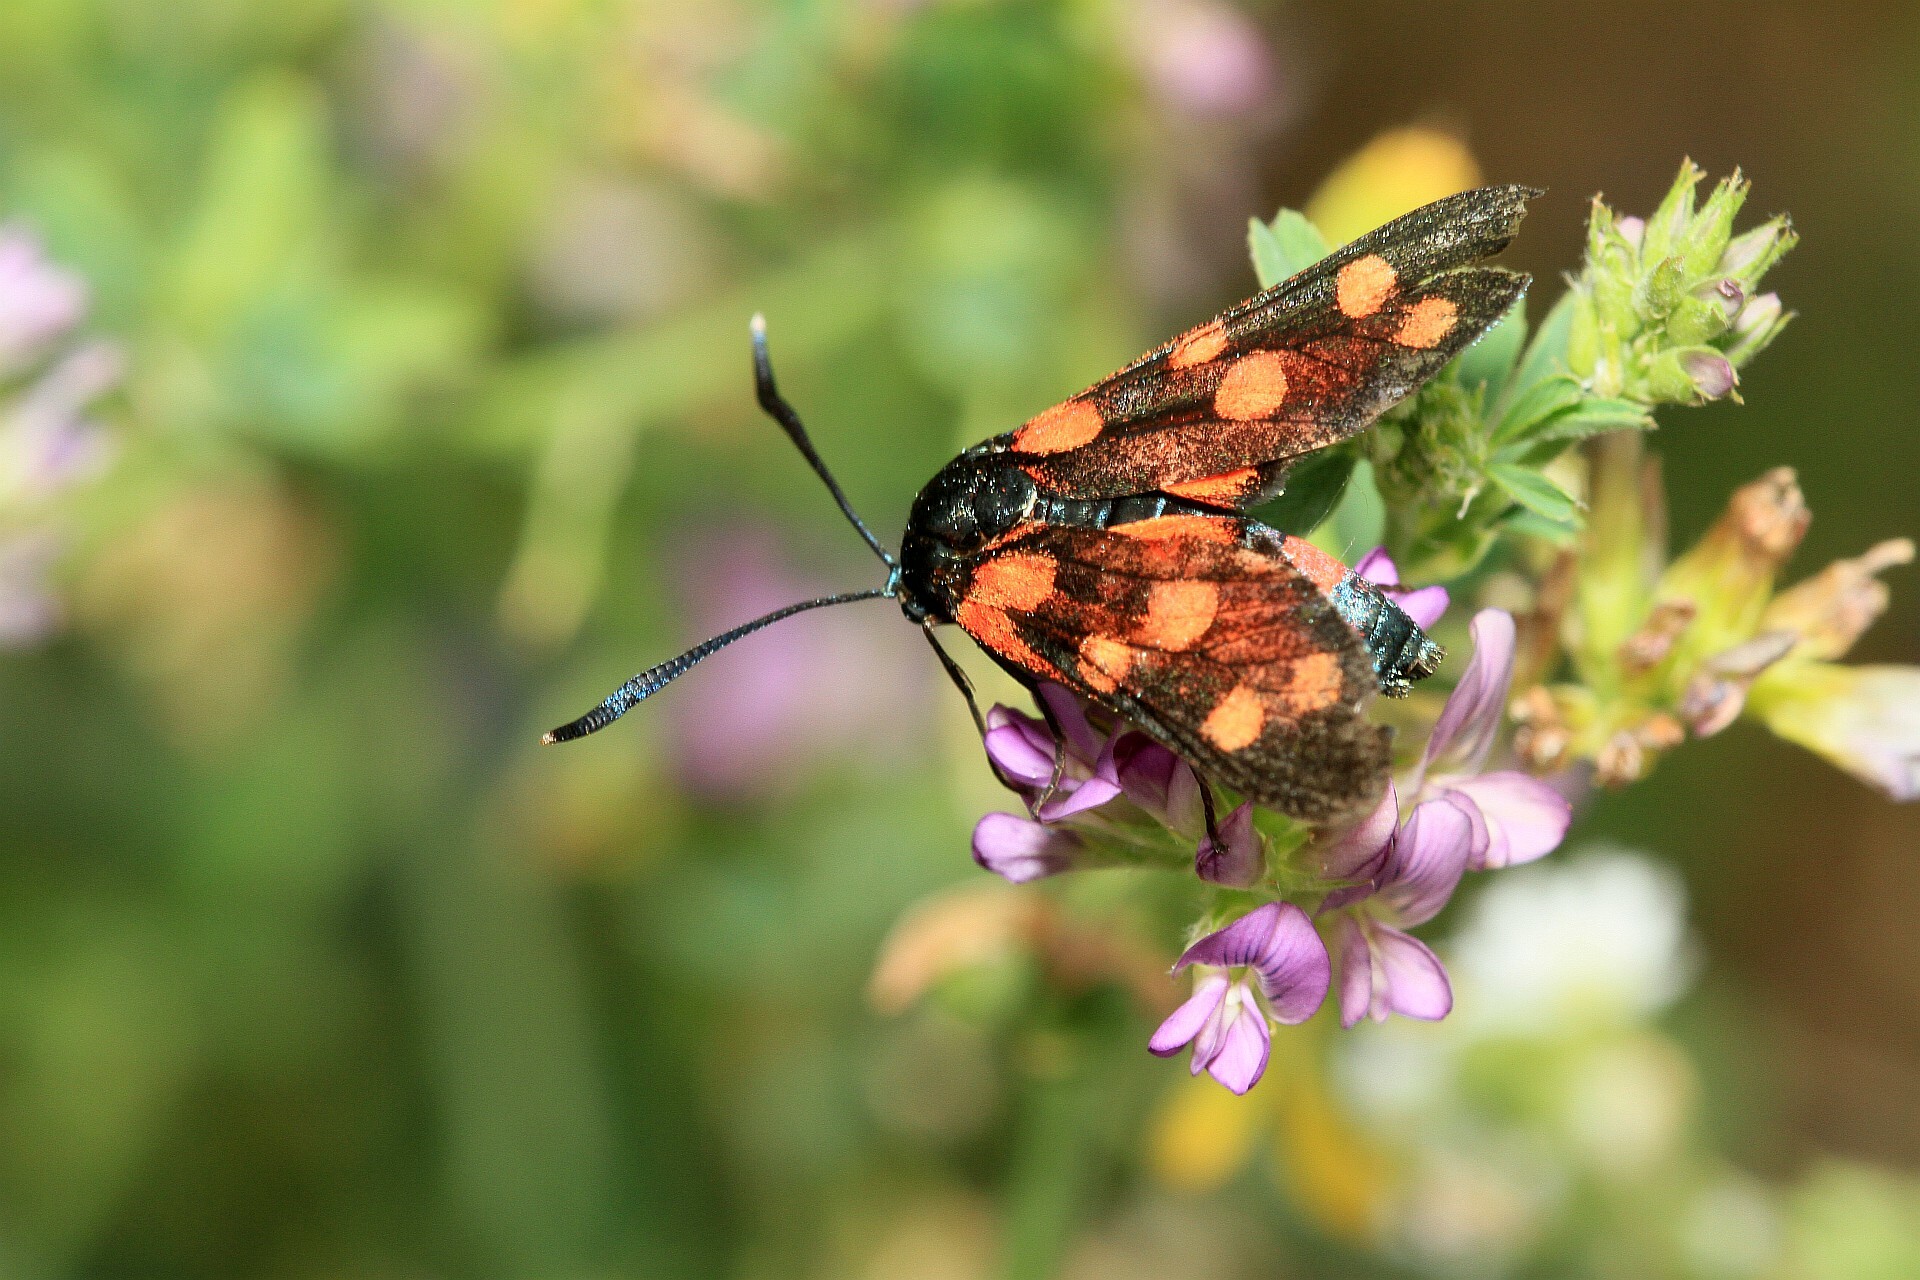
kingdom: Animalia
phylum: Arthropoda
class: Insecta
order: Lepidoptera
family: Zygaenidae
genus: Zygaena
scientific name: Zygaena ephialtes
